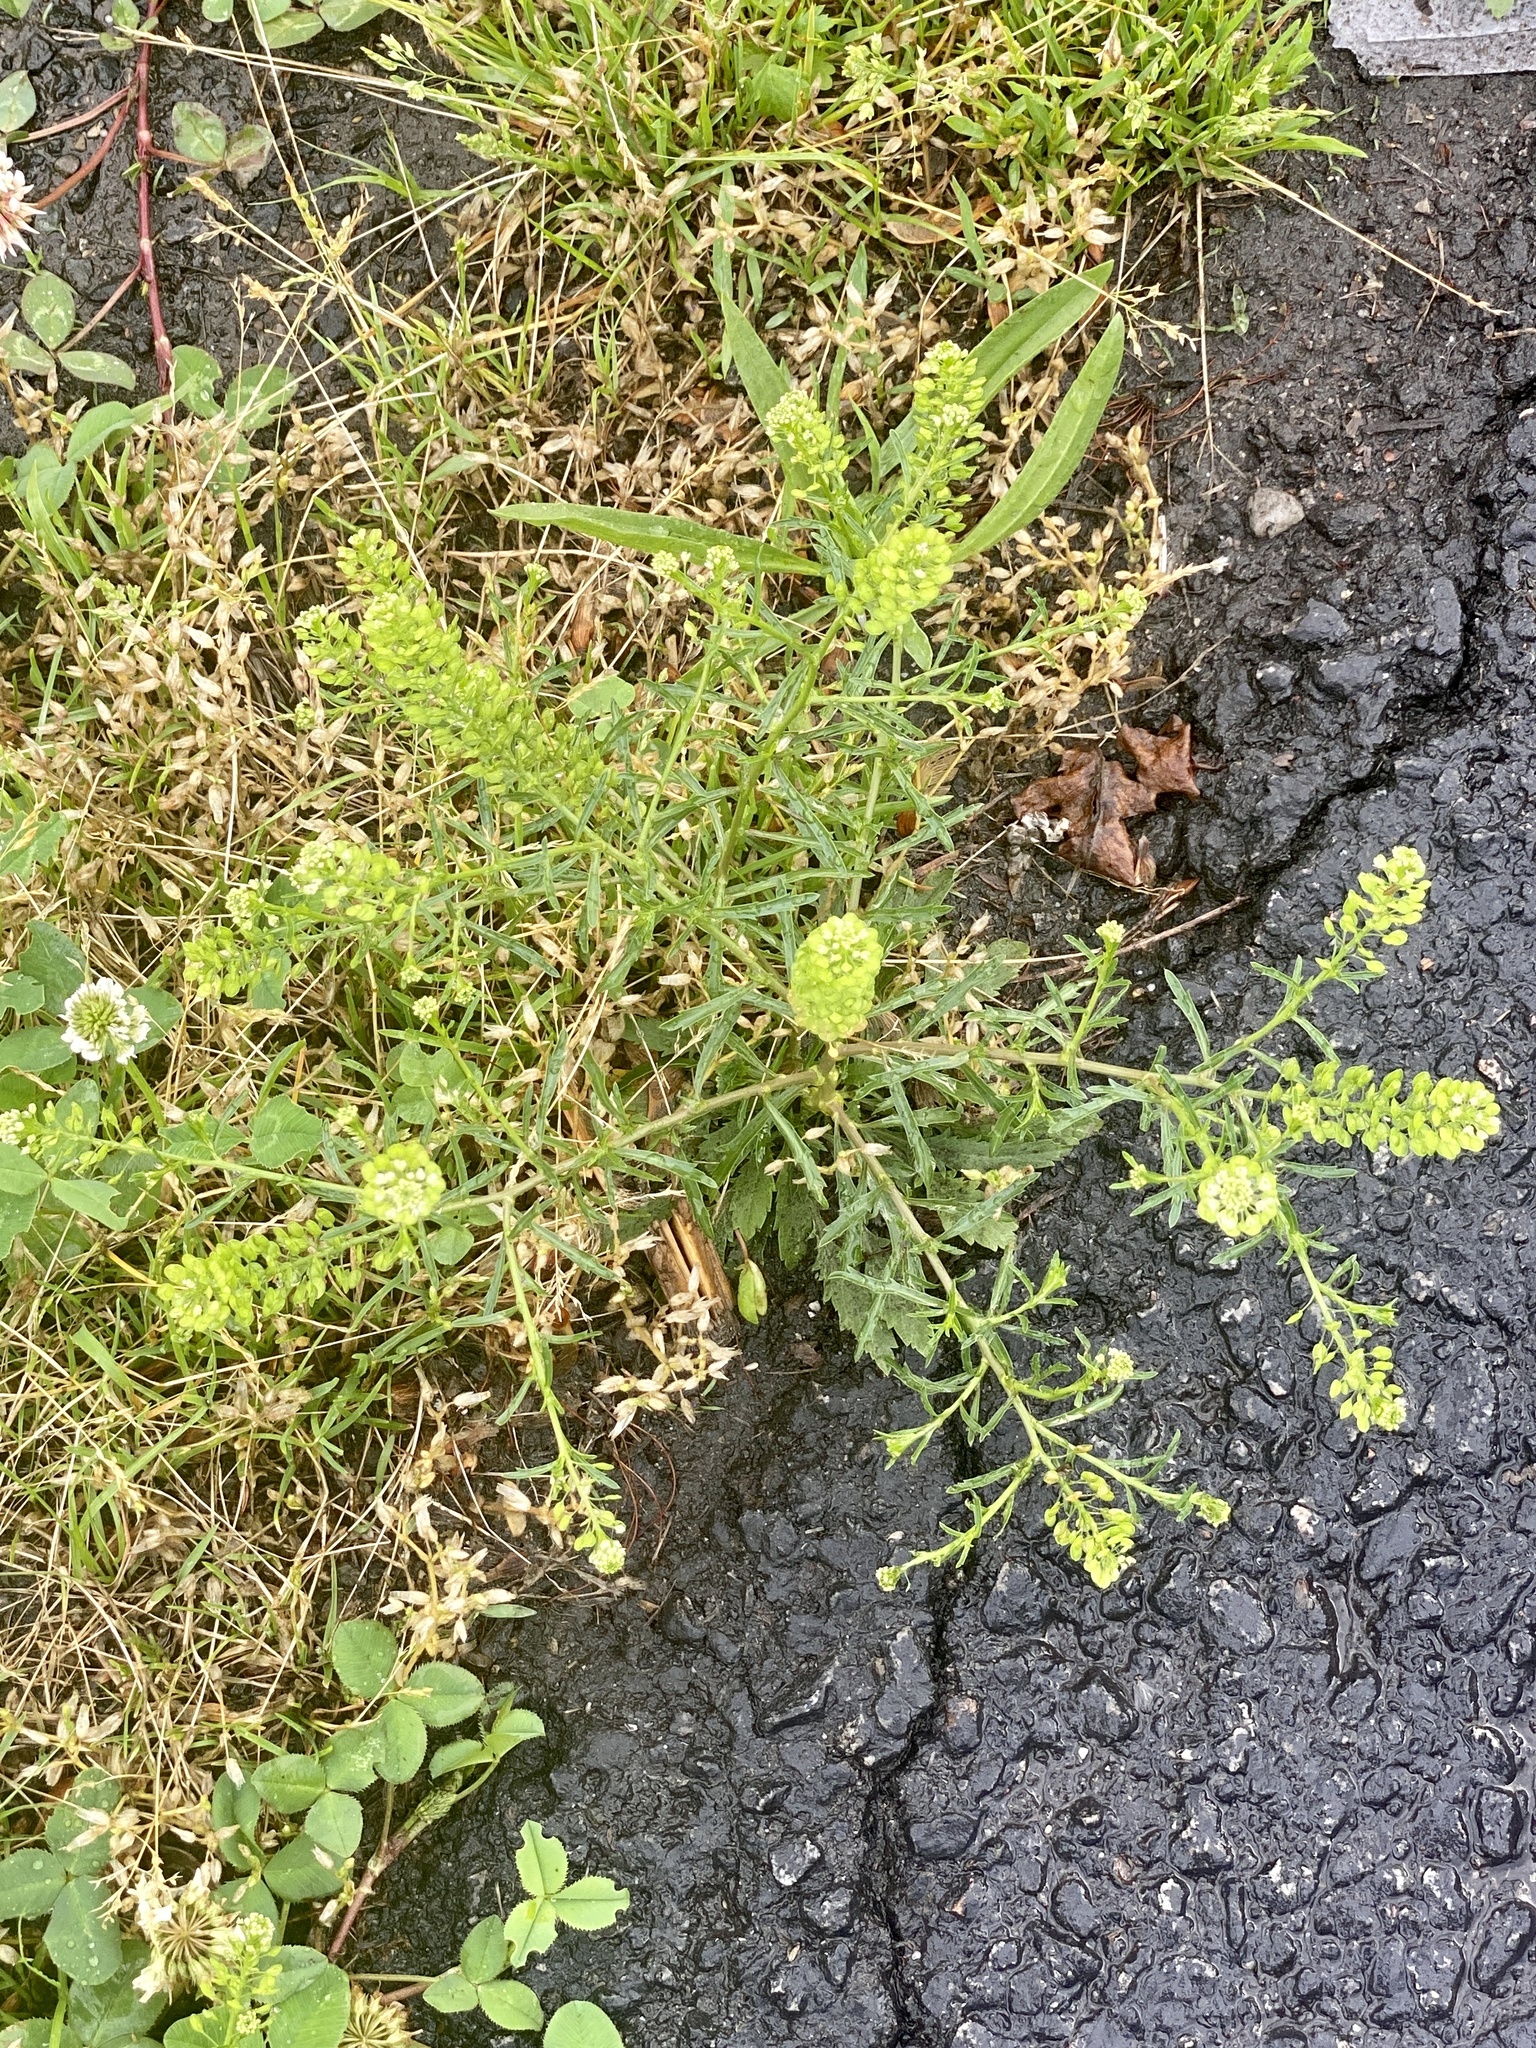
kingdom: Plantae
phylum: Tracheophyta
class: Magnoliopsida
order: Brassicales
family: Brassicaceae
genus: Lepidium
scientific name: Lepidium virginicum
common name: Least pepperwort
